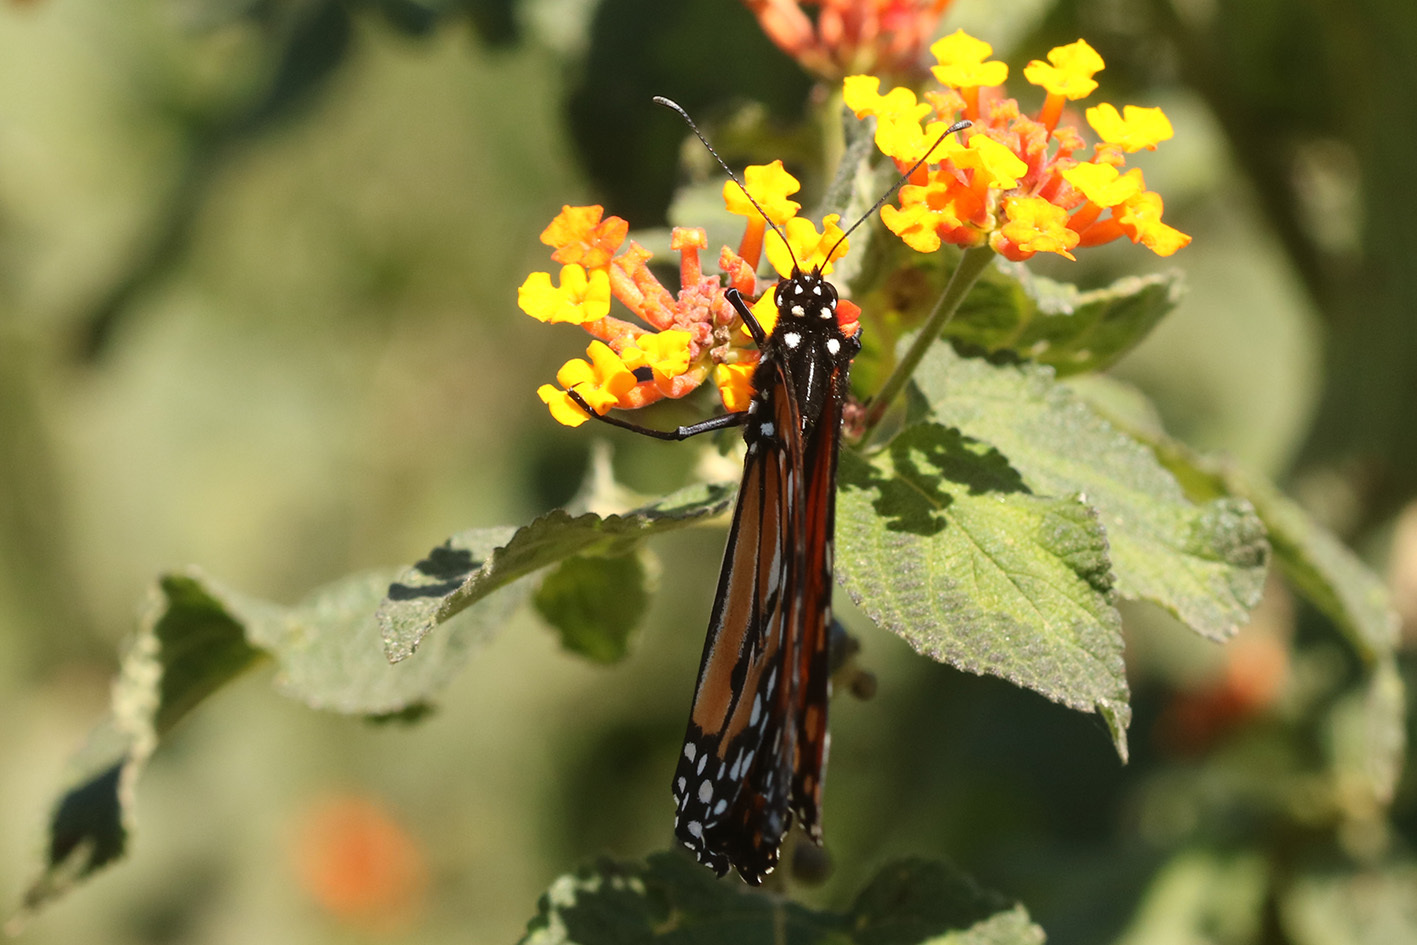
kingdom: Animalia
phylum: Arthropoda
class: Insecta
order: Lepidoptera
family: Nymphalidae
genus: Danaus
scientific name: Danaus erippus
